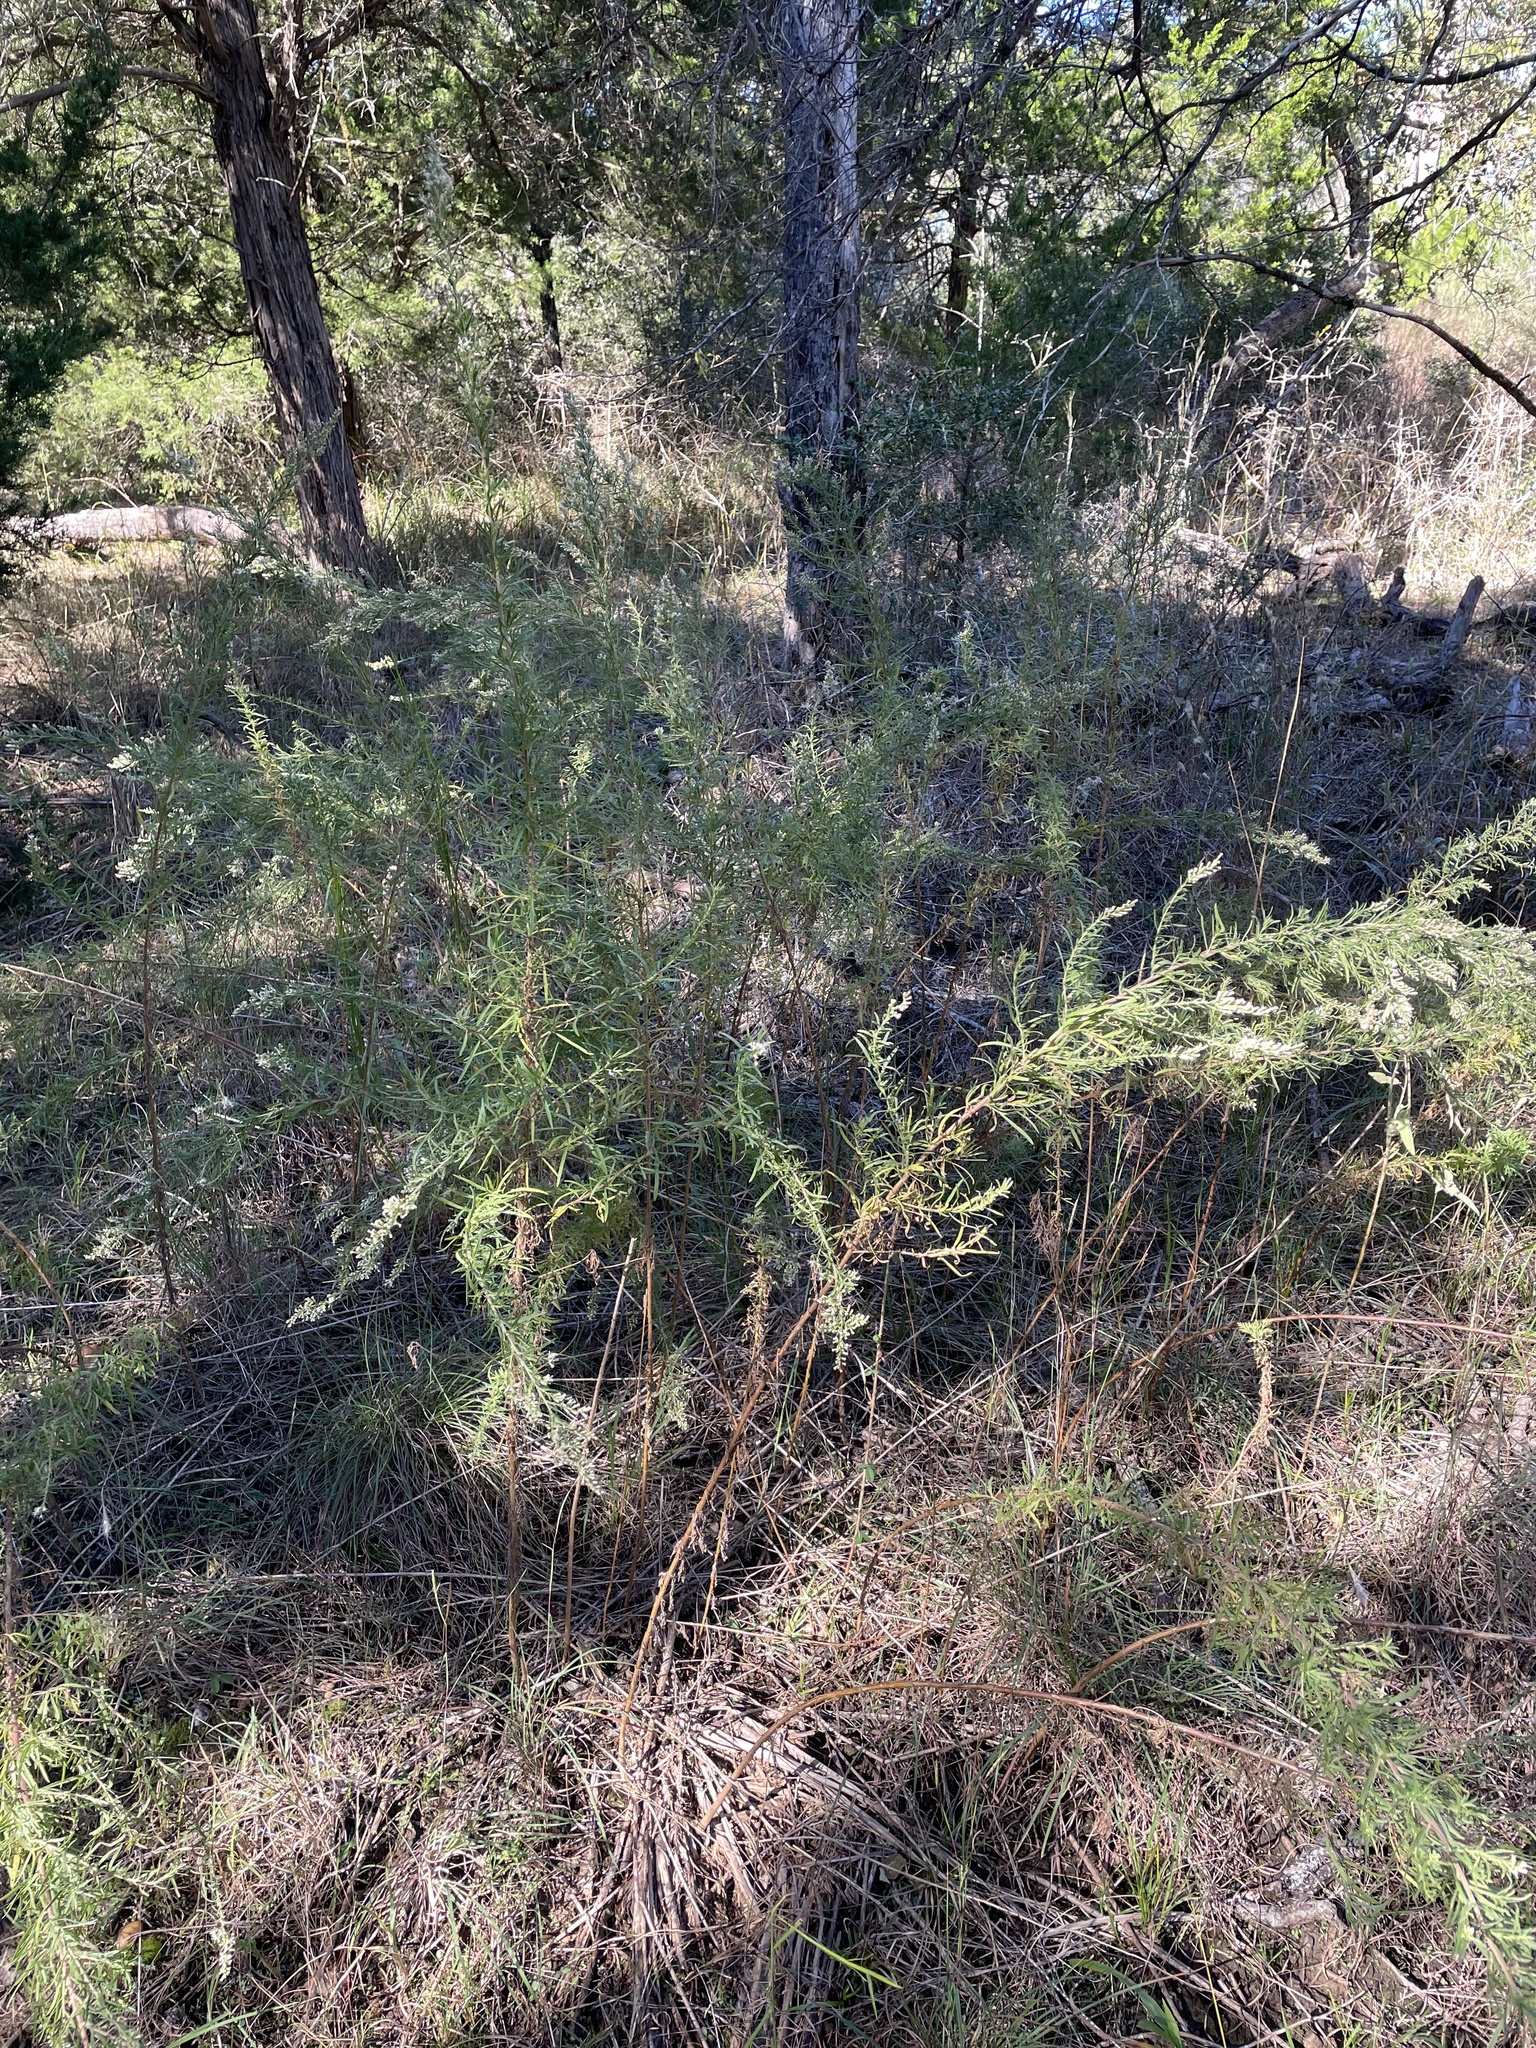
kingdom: Plantae
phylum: Tracheophyta
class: Magnoliopsida
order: Asterales
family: Asteraceae
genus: Eupatorium
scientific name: Eupatorium compositifolium
